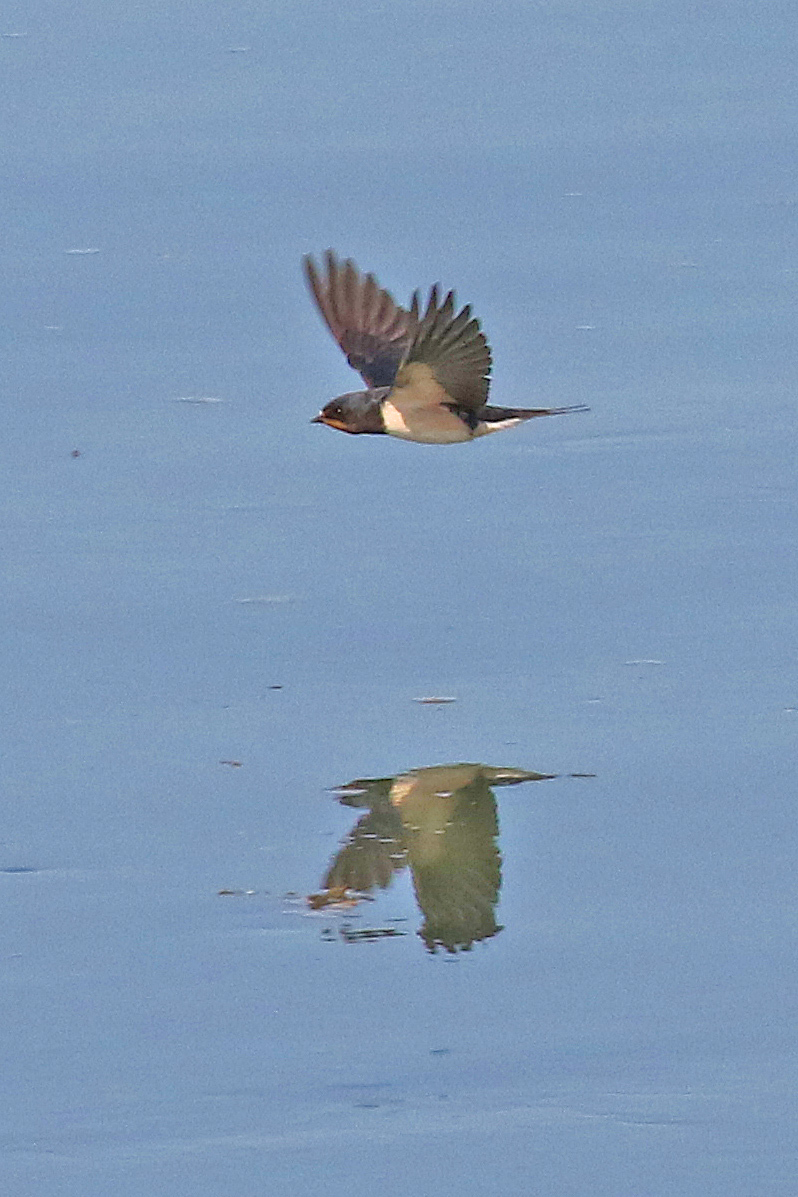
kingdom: Animalia
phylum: Chordata
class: Aves
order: Passeriformes
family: Hirundinidae
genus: Hirundo
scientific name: Hirundo rustica
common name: Barn swallow
